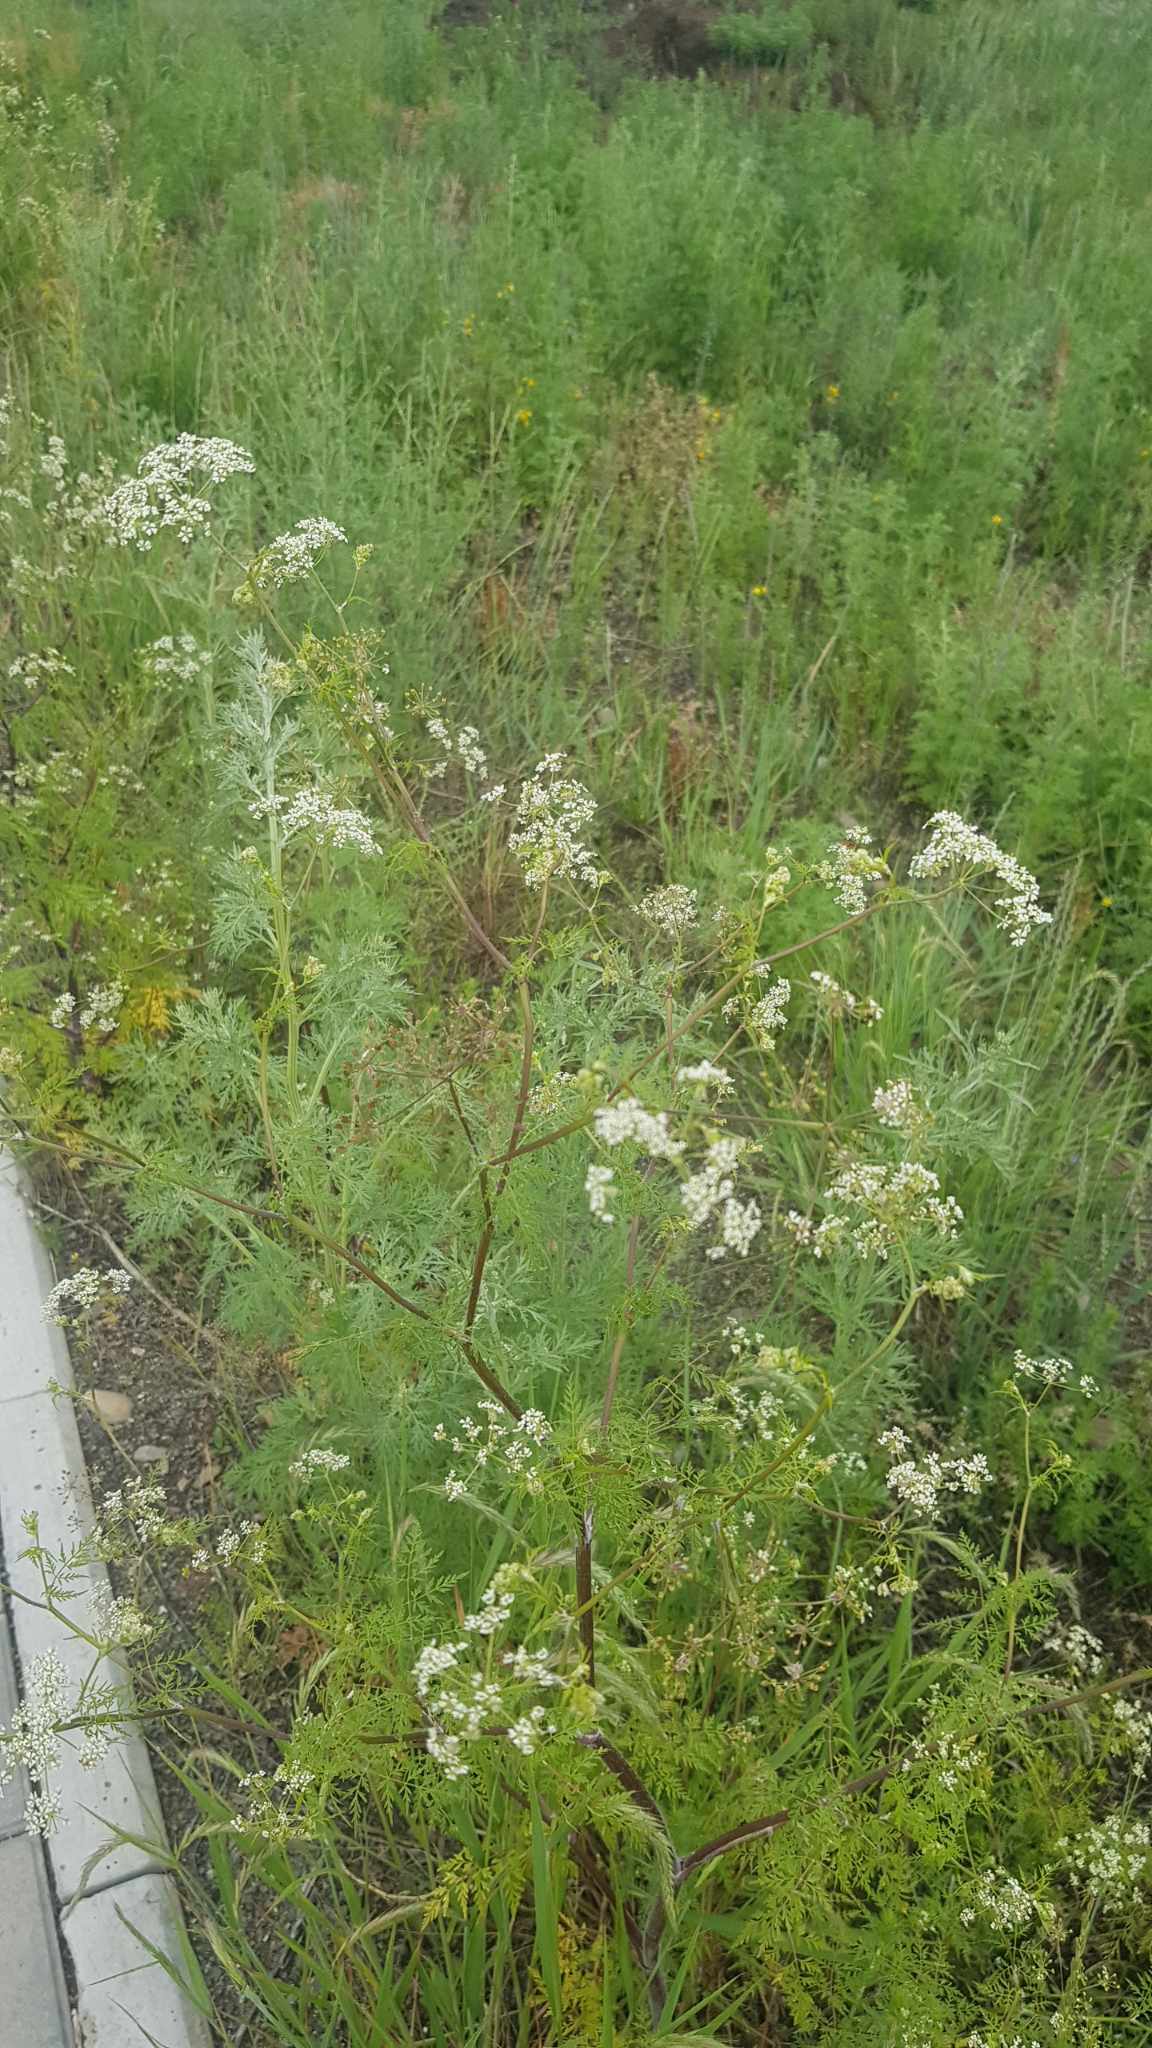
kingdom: Plantae
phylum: Tracheophyta
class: Magnoliopsida
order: Apiales
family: Apiaceae
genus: Sphallerocarpus
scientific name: Sphallerocarpus gracilis
